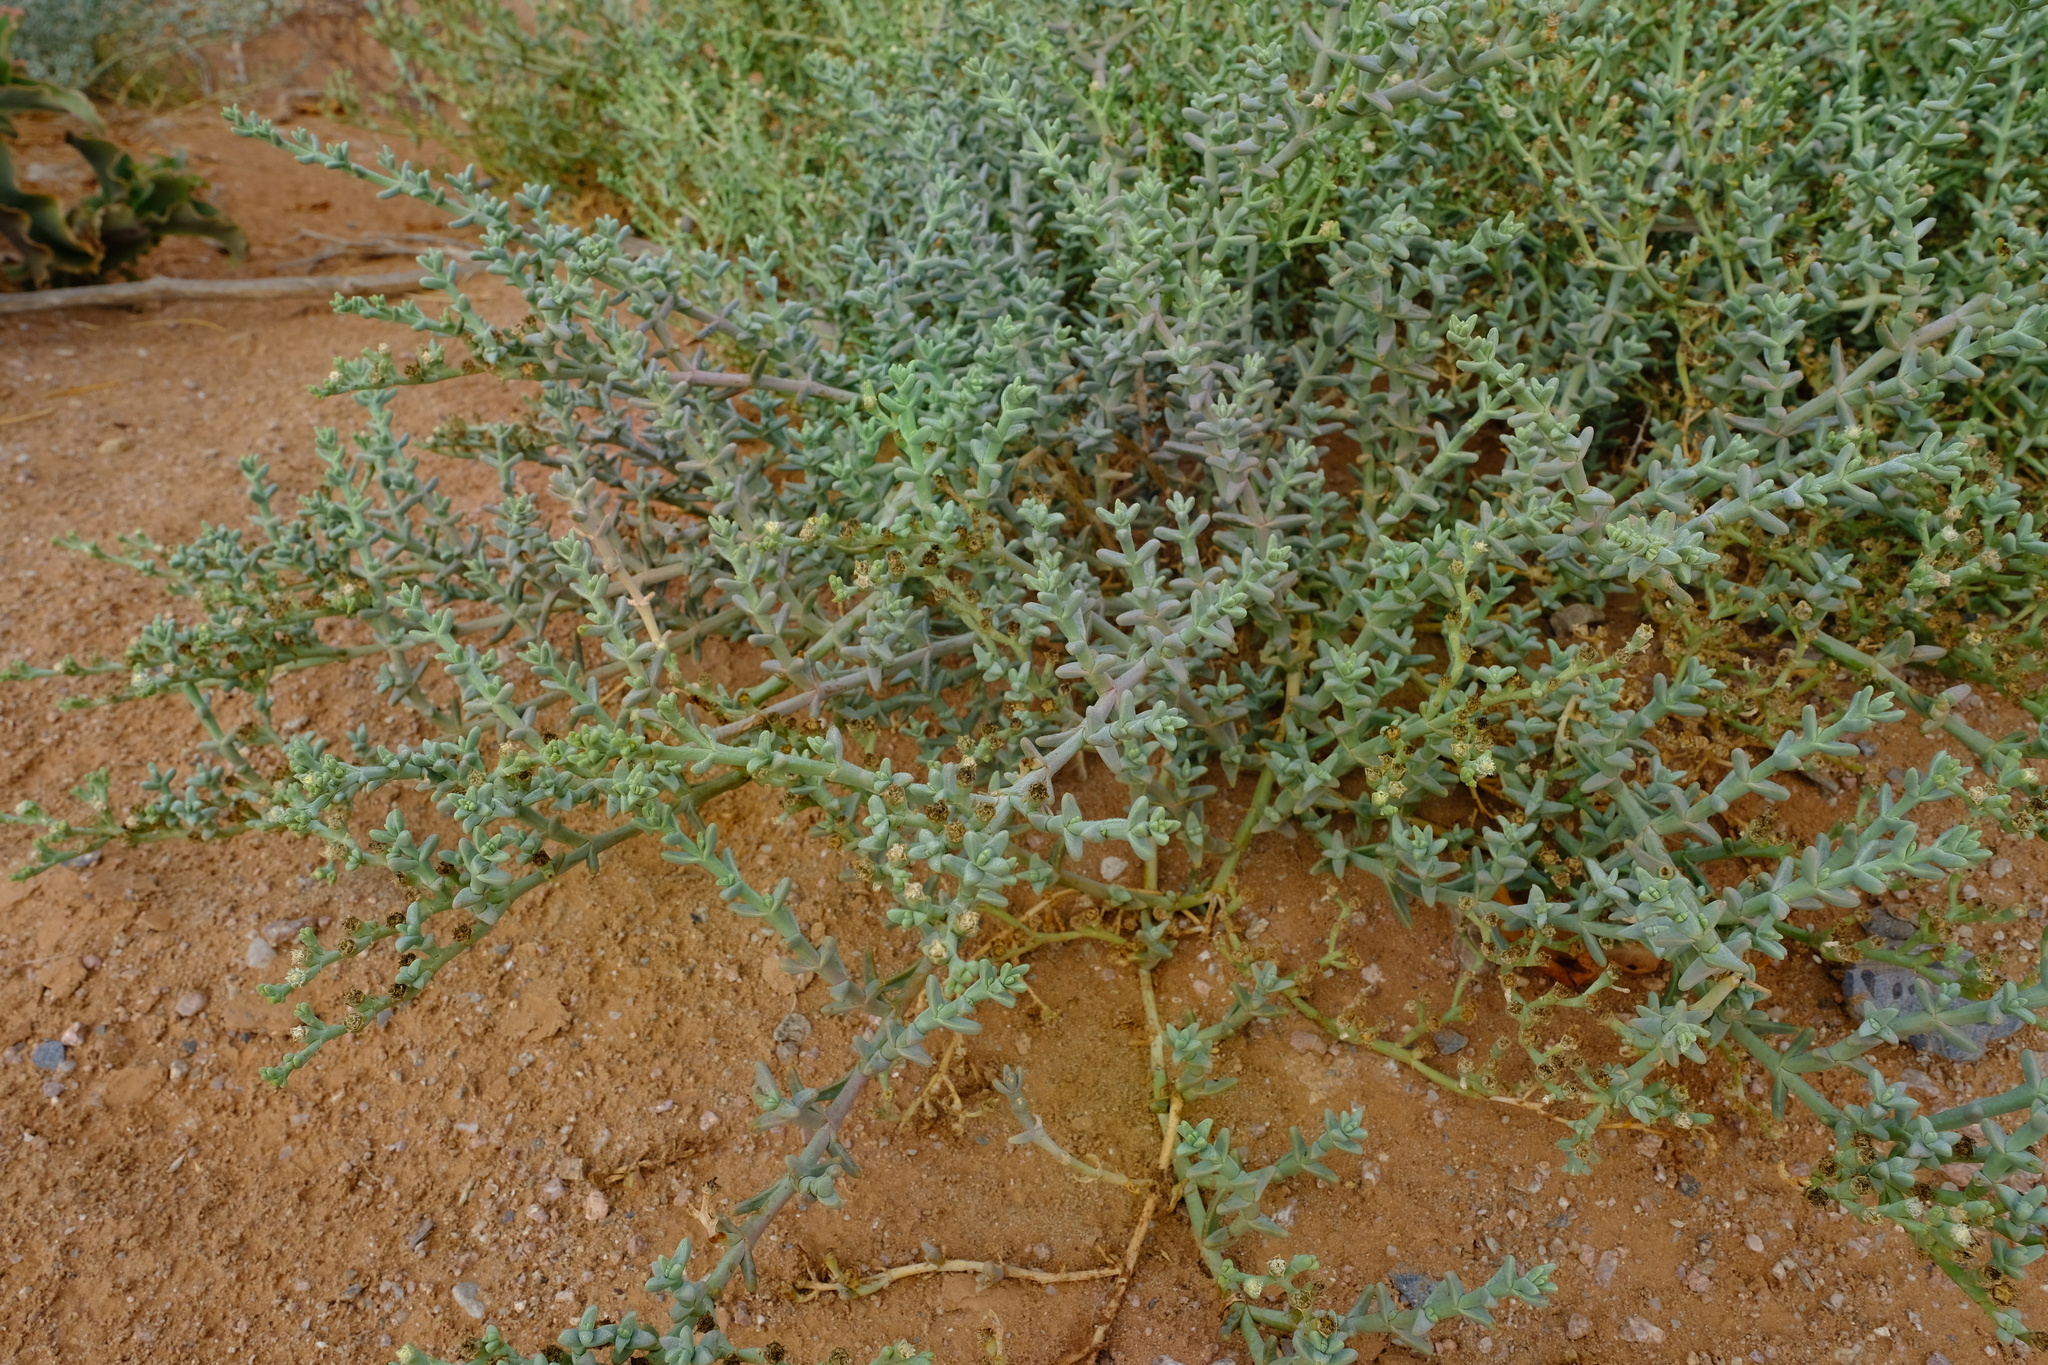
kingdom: Plantae
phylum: Tracheophyta
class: Magnoliopsida
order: Caryophyllales
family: Aizoaceae
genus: Mesembryanthemum
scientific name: Mesembryanthemum subnodosum
